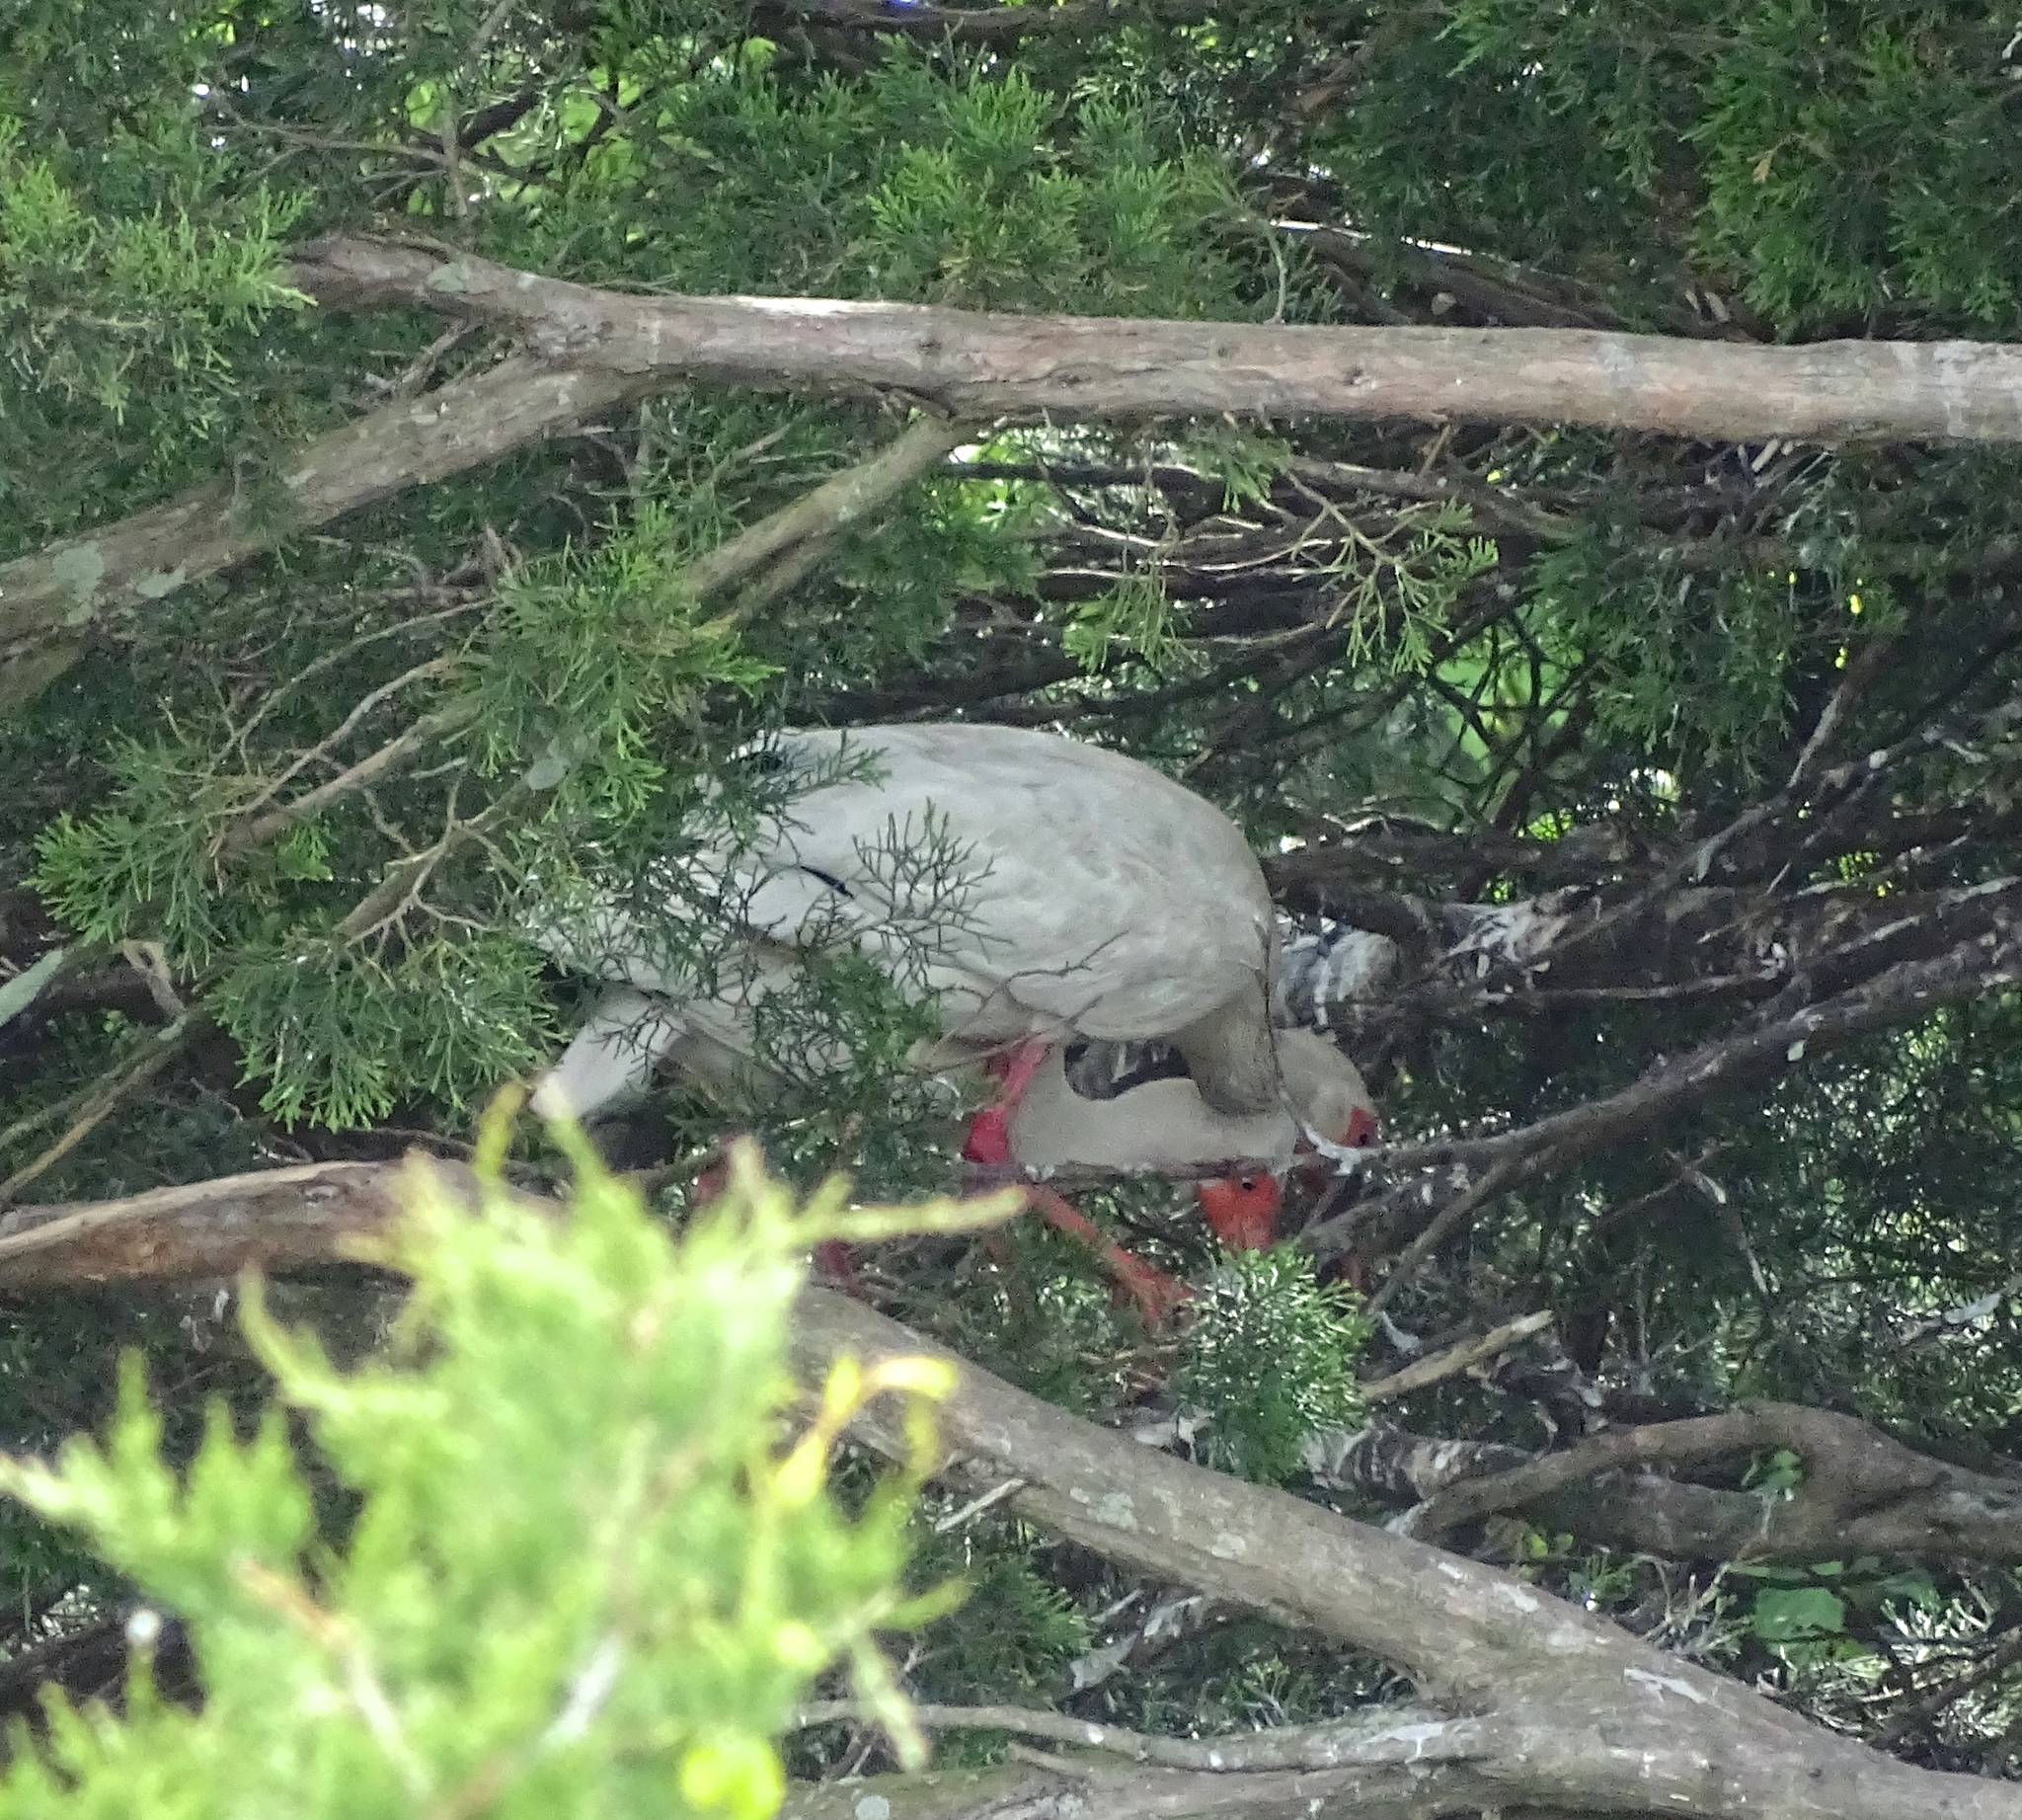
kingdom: Animalia
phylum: Chordata
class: Aves
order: Pelecaniformes
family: Threskiornithidae
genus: Eudocimus
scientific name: Eudocimus albus
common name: White ibis
